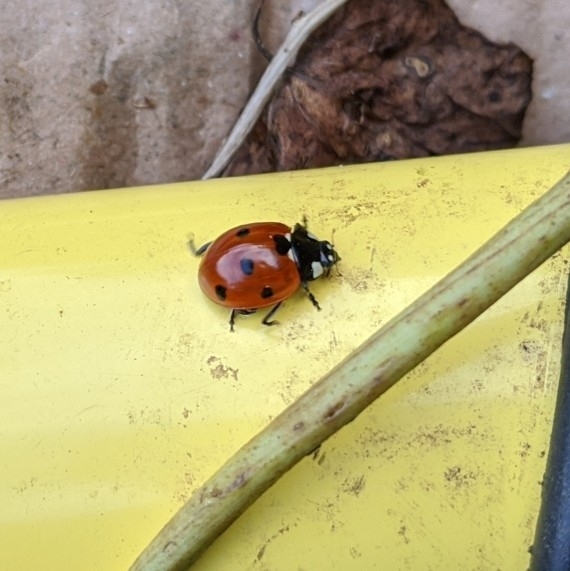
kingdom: Animalia
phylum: Arthropoda
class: Insecta
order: Coleoptera
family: Coccinellidae
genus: Coccinella
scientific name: Coccinella septempunctata
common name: Sevenspotted lady beetle
